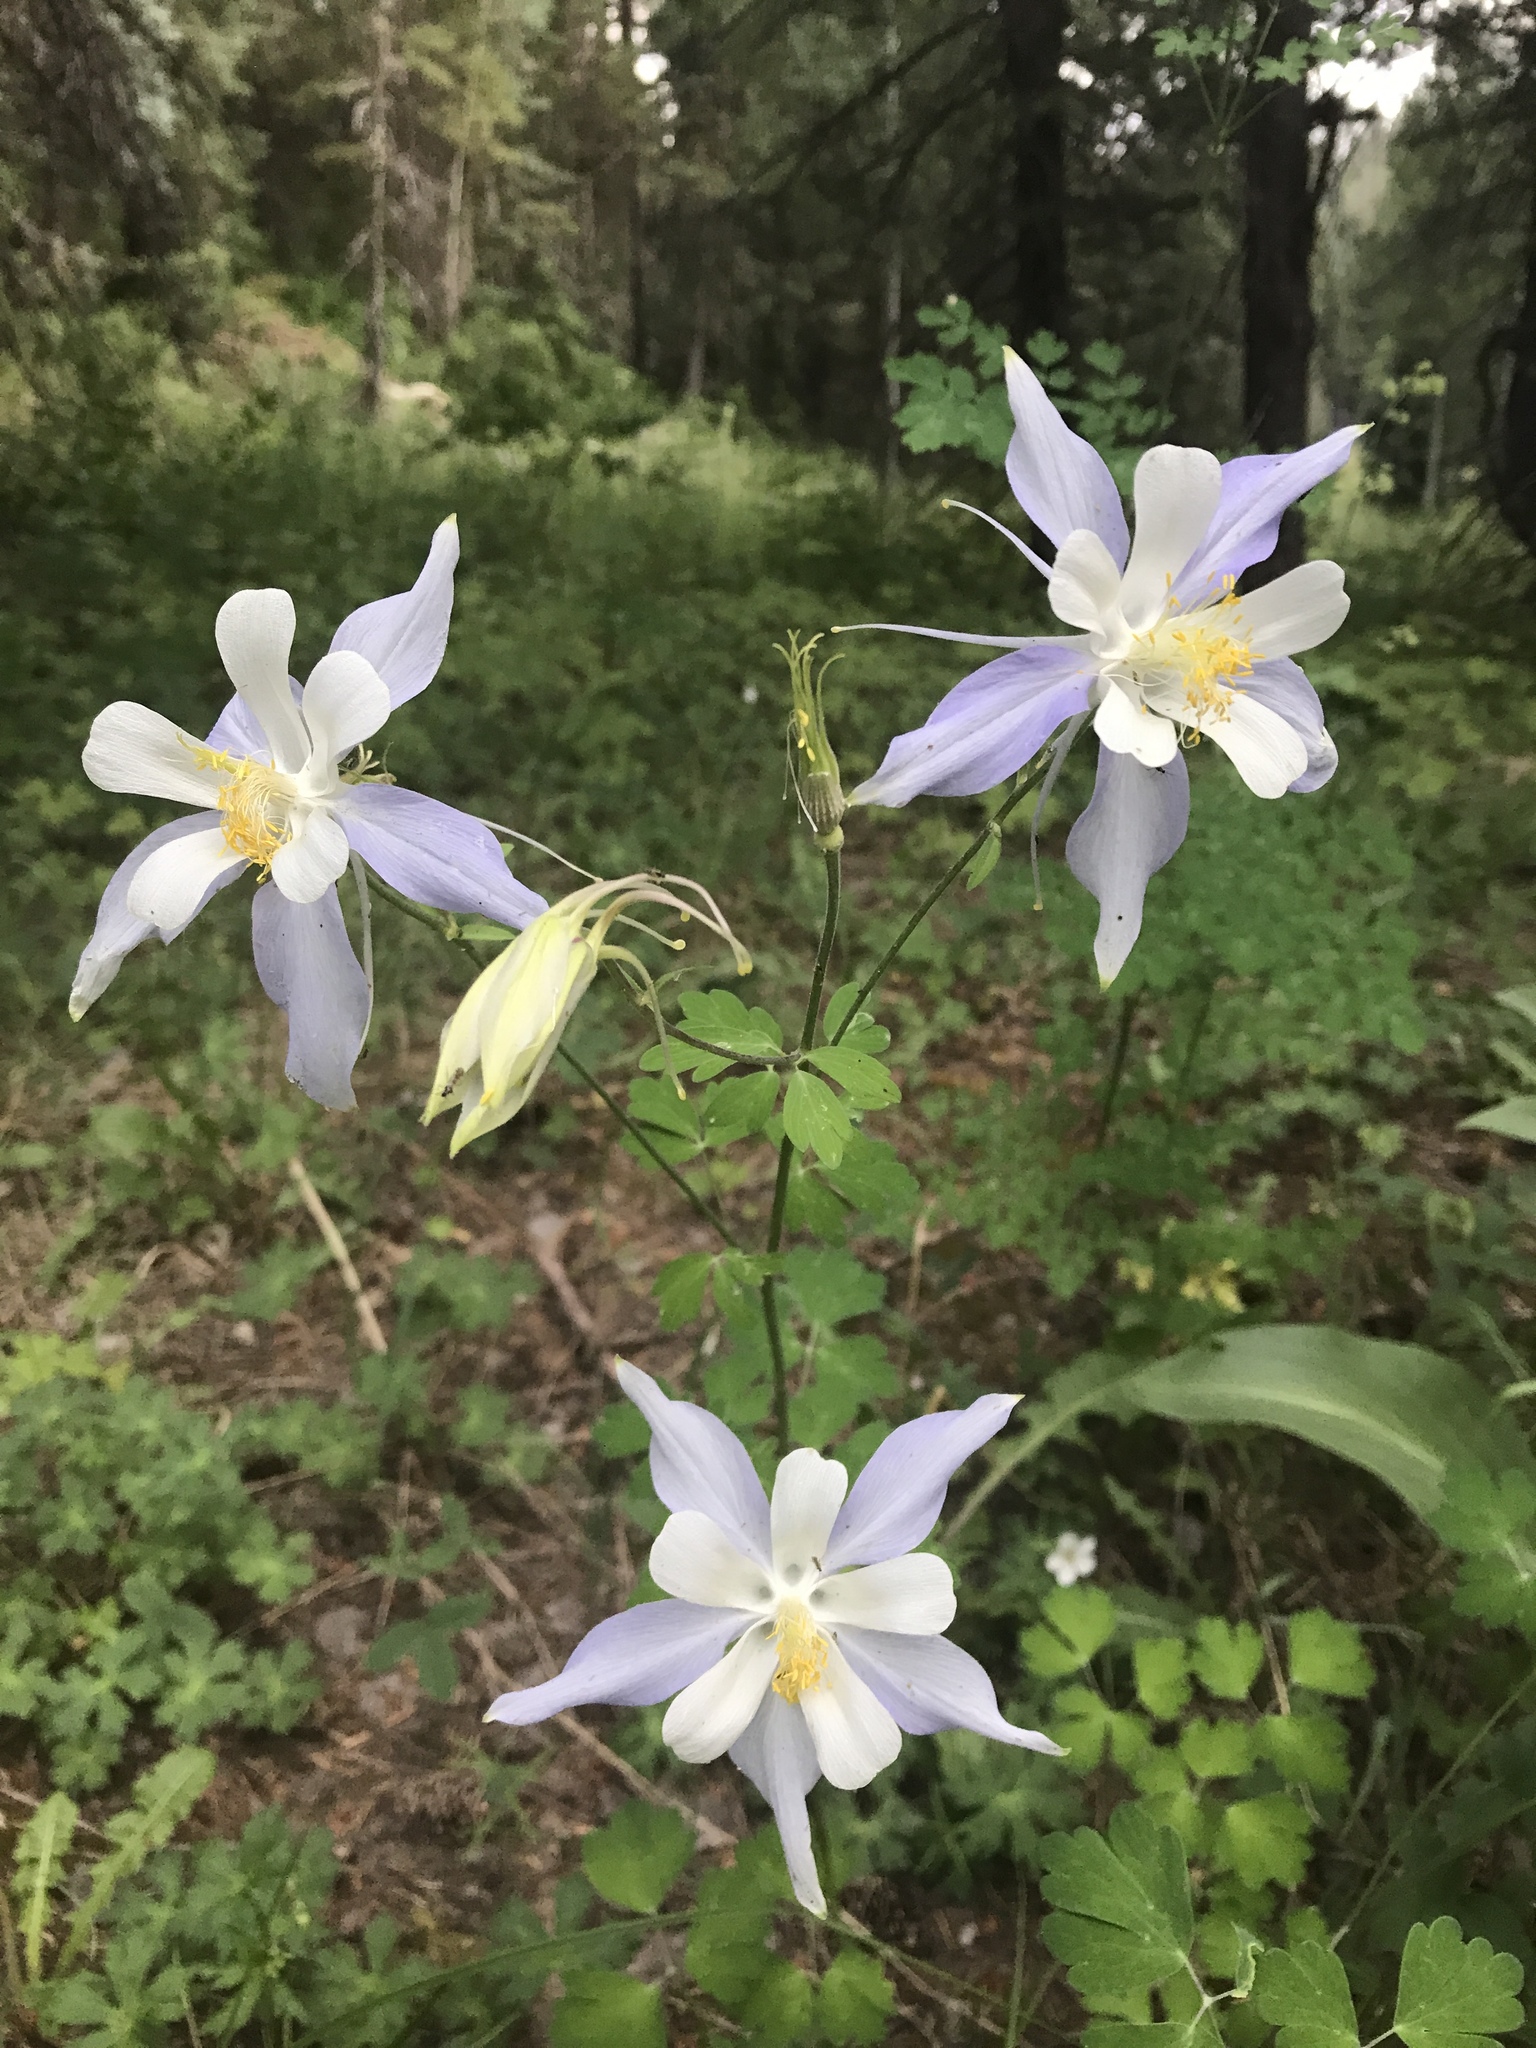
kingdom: Plantae
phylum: Tracheophyta
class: Magnoliopsida
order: Ranunculales
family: Ranunculaceae
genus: Aquilegia
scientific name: Aquilegia coerulea
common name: Rocky mountain columbine
